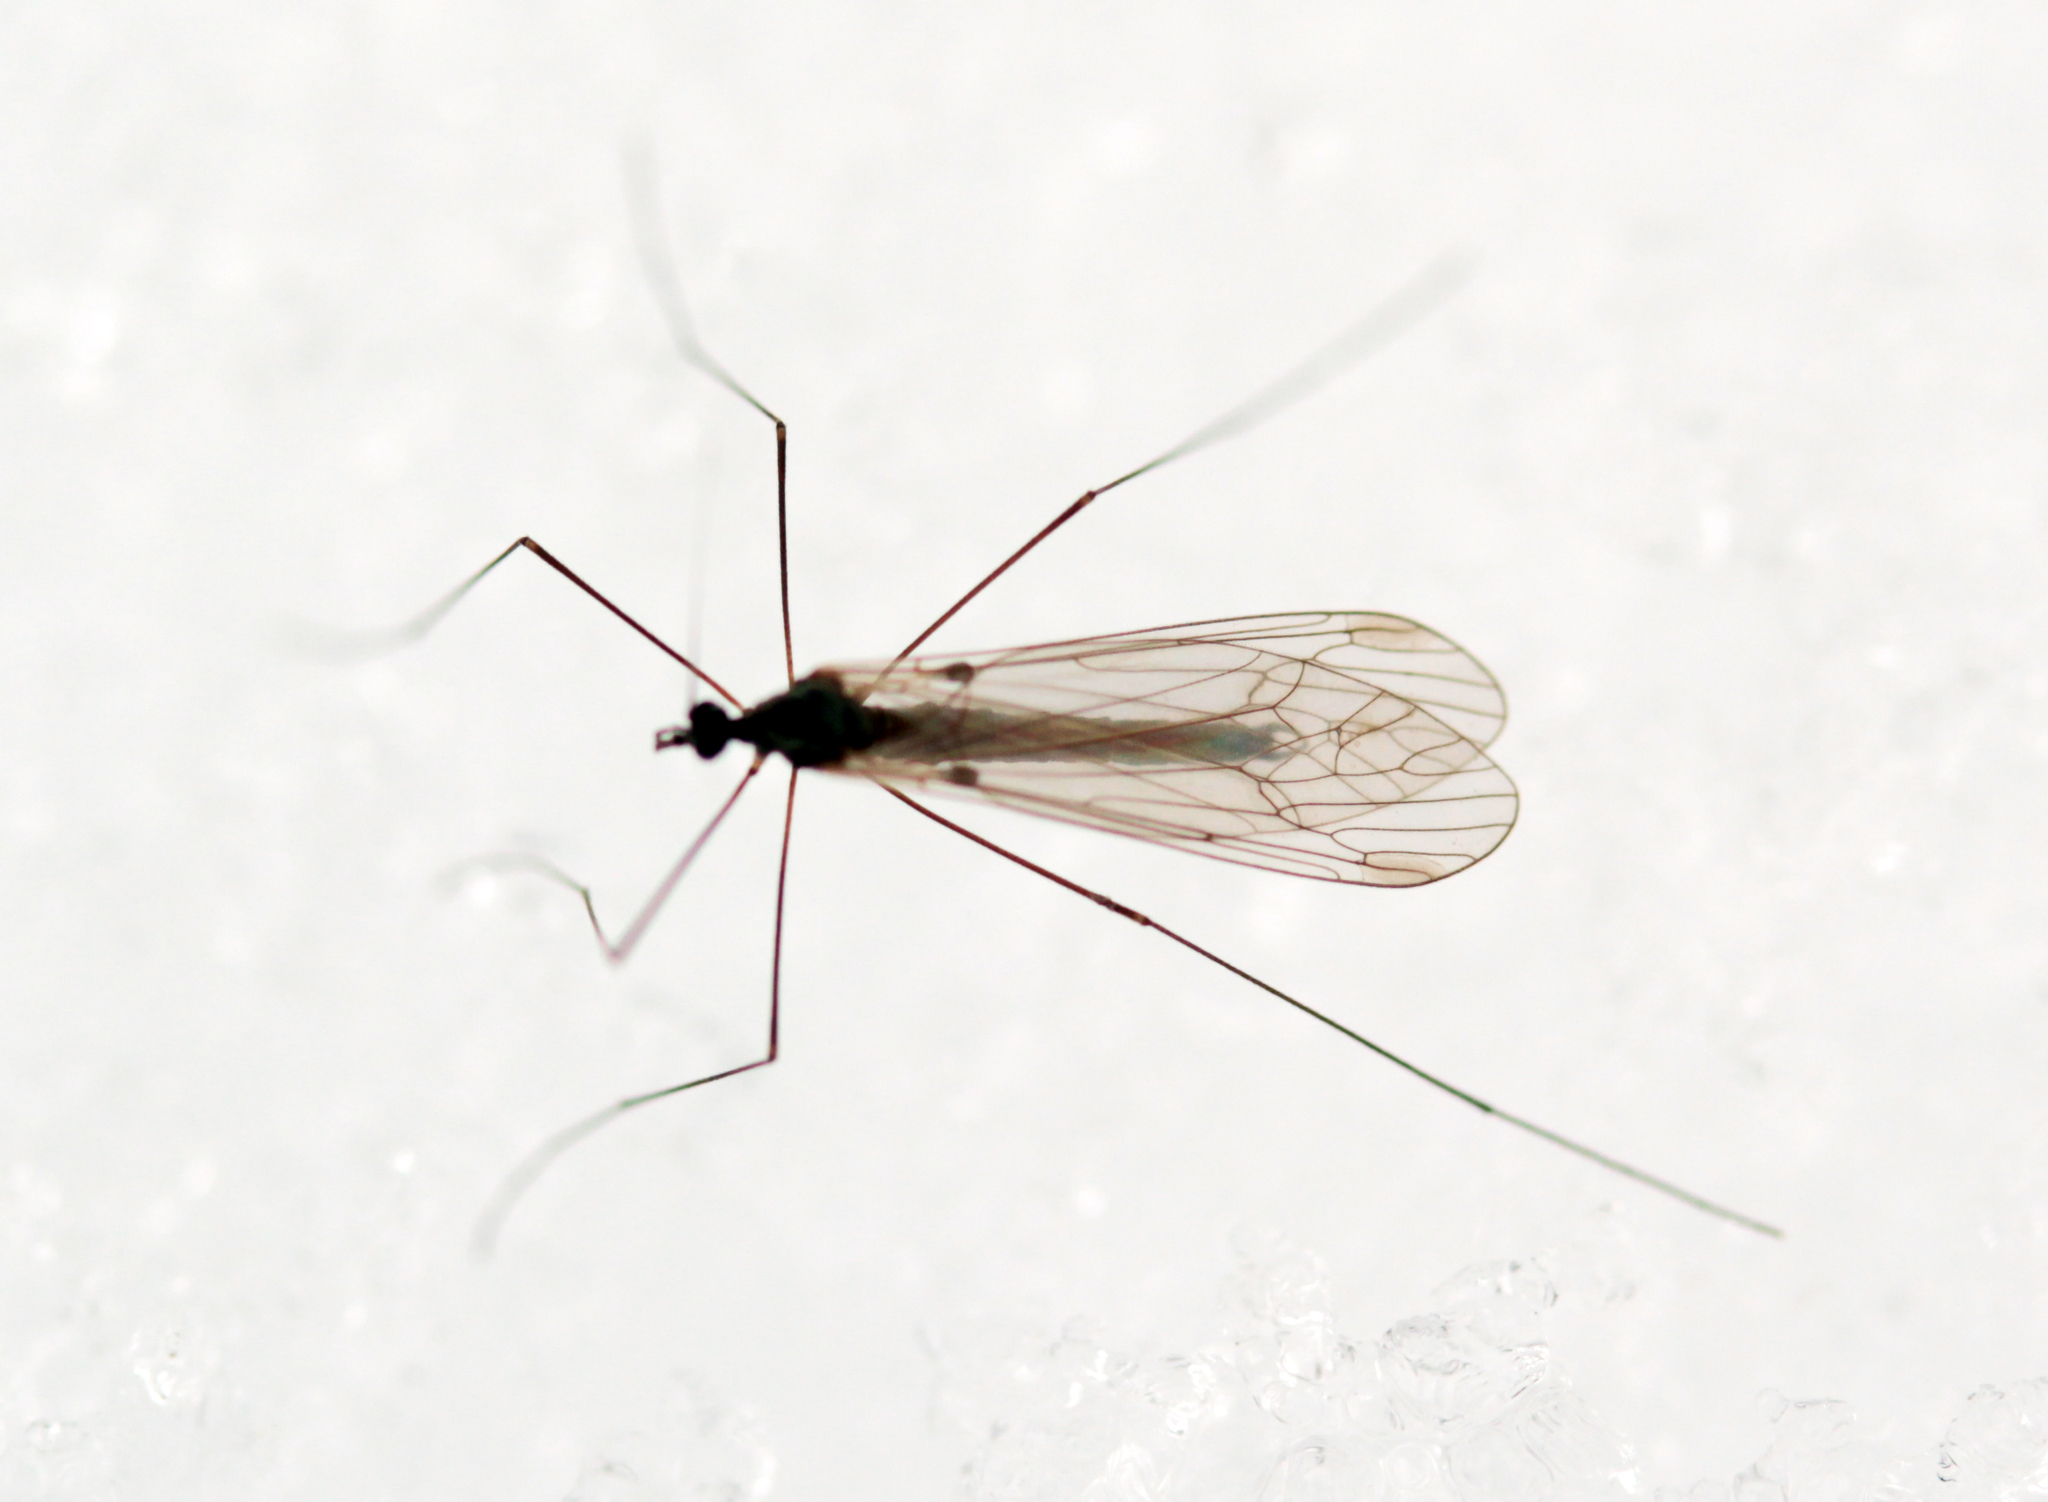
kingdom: Animalia
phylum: Arthropoda
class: Insecta
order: Diptera
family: Trichoceridae
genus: Trichocera
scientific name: Trichocera
